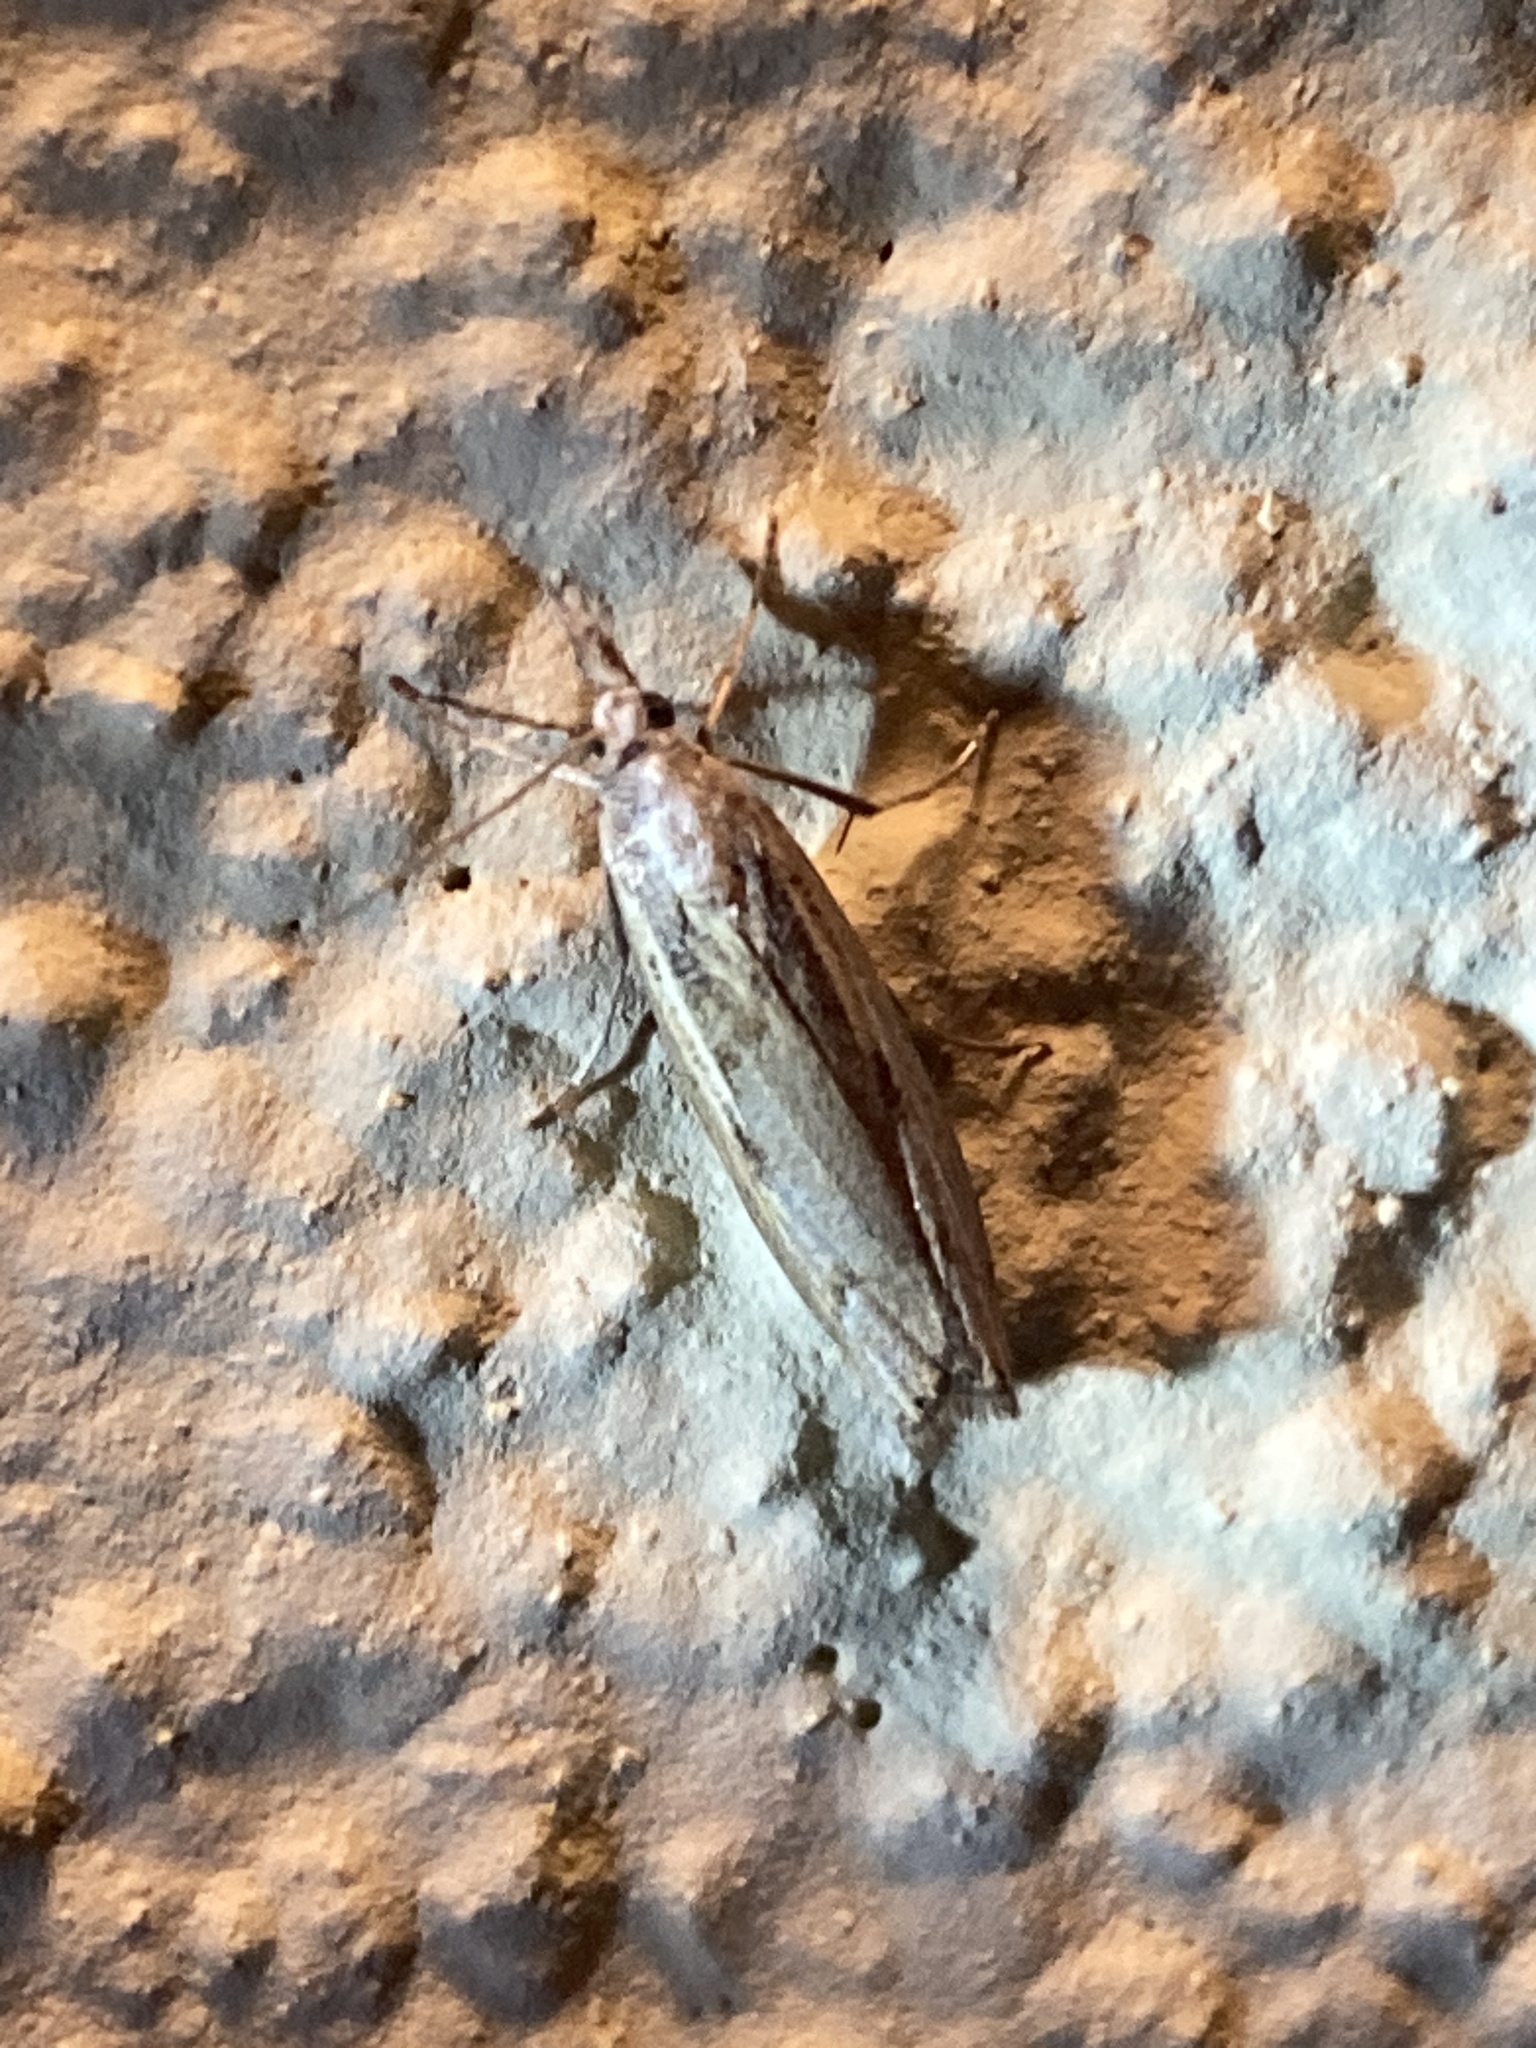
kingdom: Animalia
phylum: Arthropoda
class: Insecta
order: Lepidoptera
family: Crambidae
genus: Agriphila
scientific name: Agriphila geniculea
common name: Elbow-stripe grass-veneer
